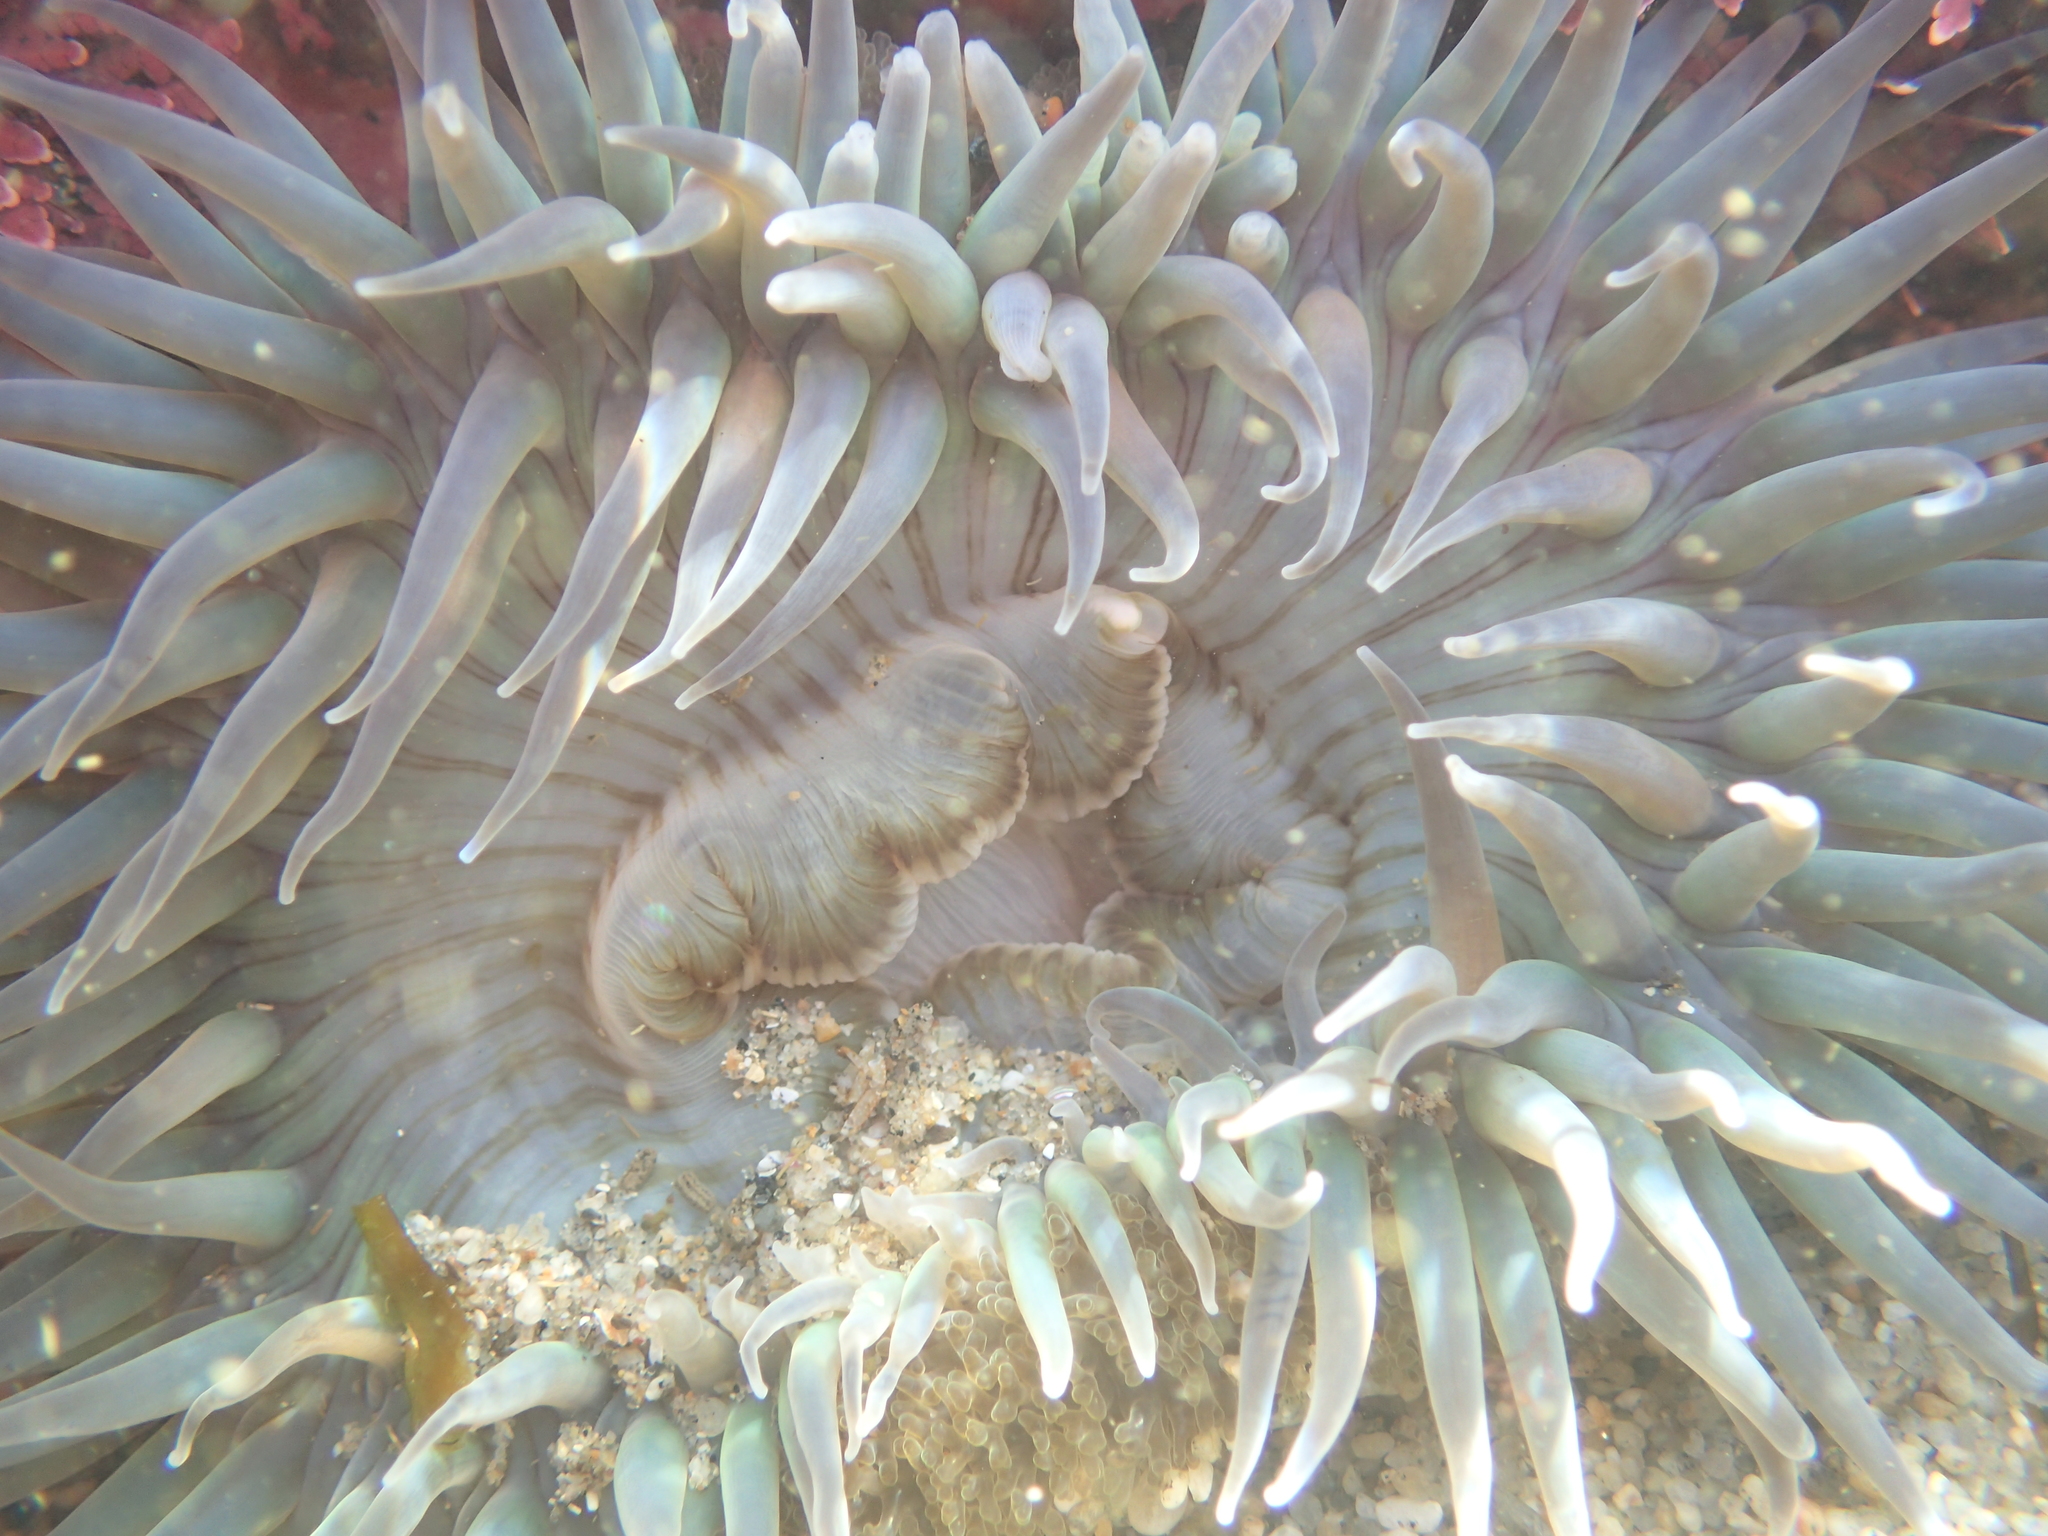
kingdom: Animalia
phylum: Cnidaria
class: Anthozoa
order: Actiniaria
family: Actiniidae
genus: Anthopleura
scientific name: Anthopleura sola
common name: Sun anemone
